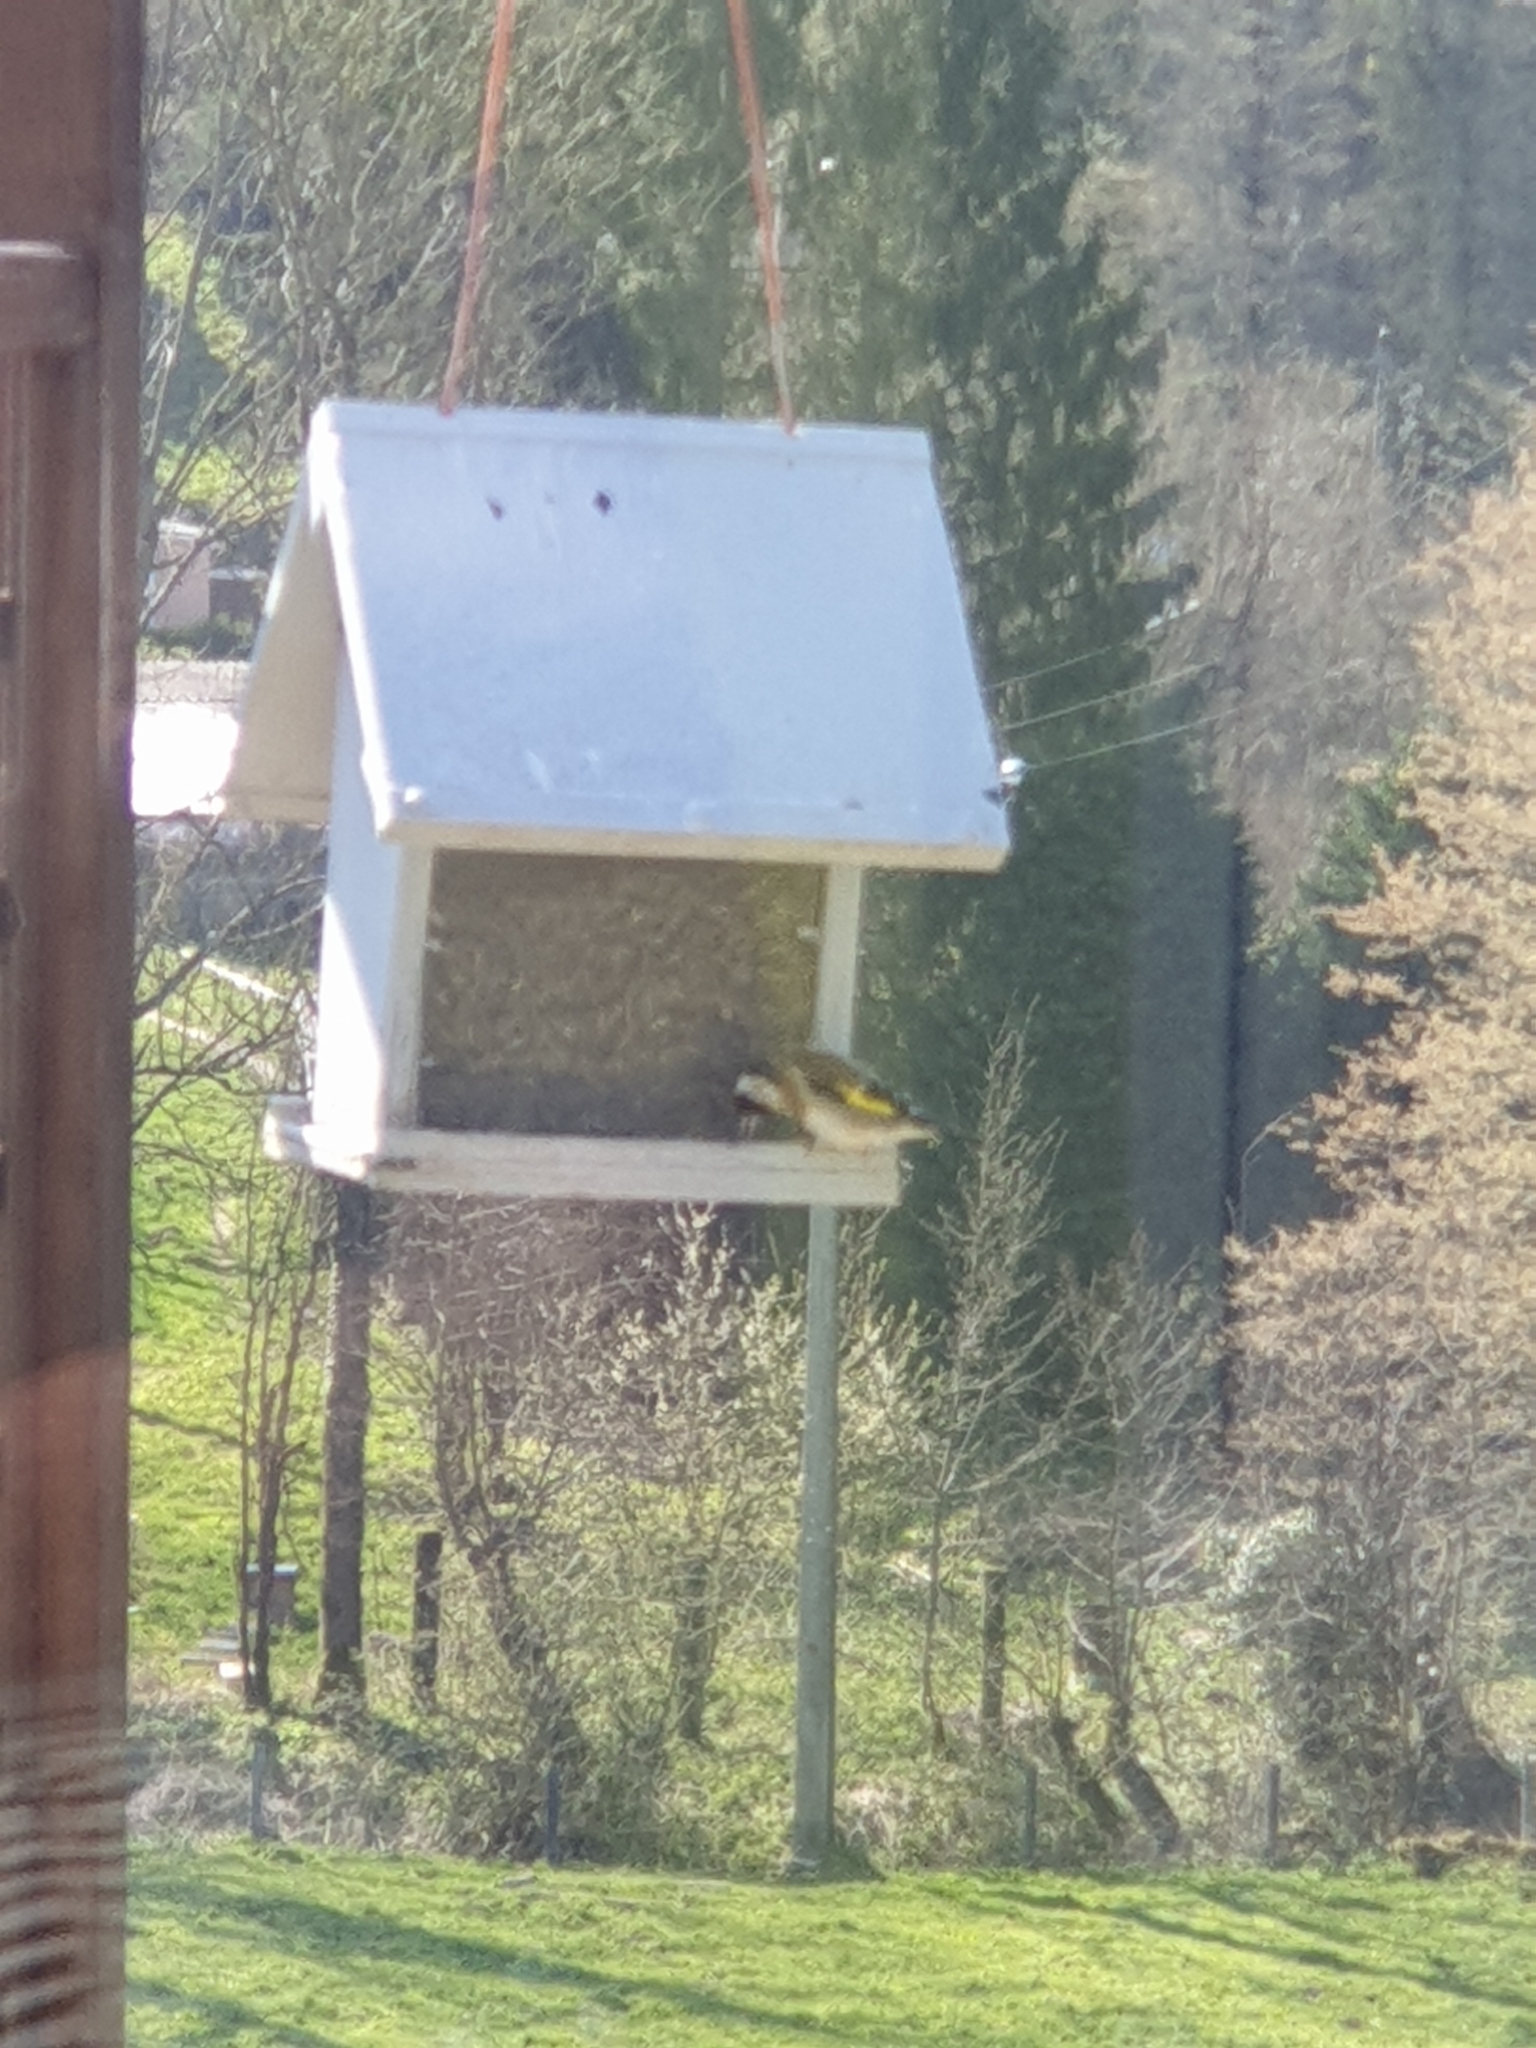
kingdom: Animalia
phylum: Chordata
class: Aves
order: Passeriformes
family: Fringillidae
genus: Carduelis
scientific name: Carduelis carduelis
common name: European goldfinch
